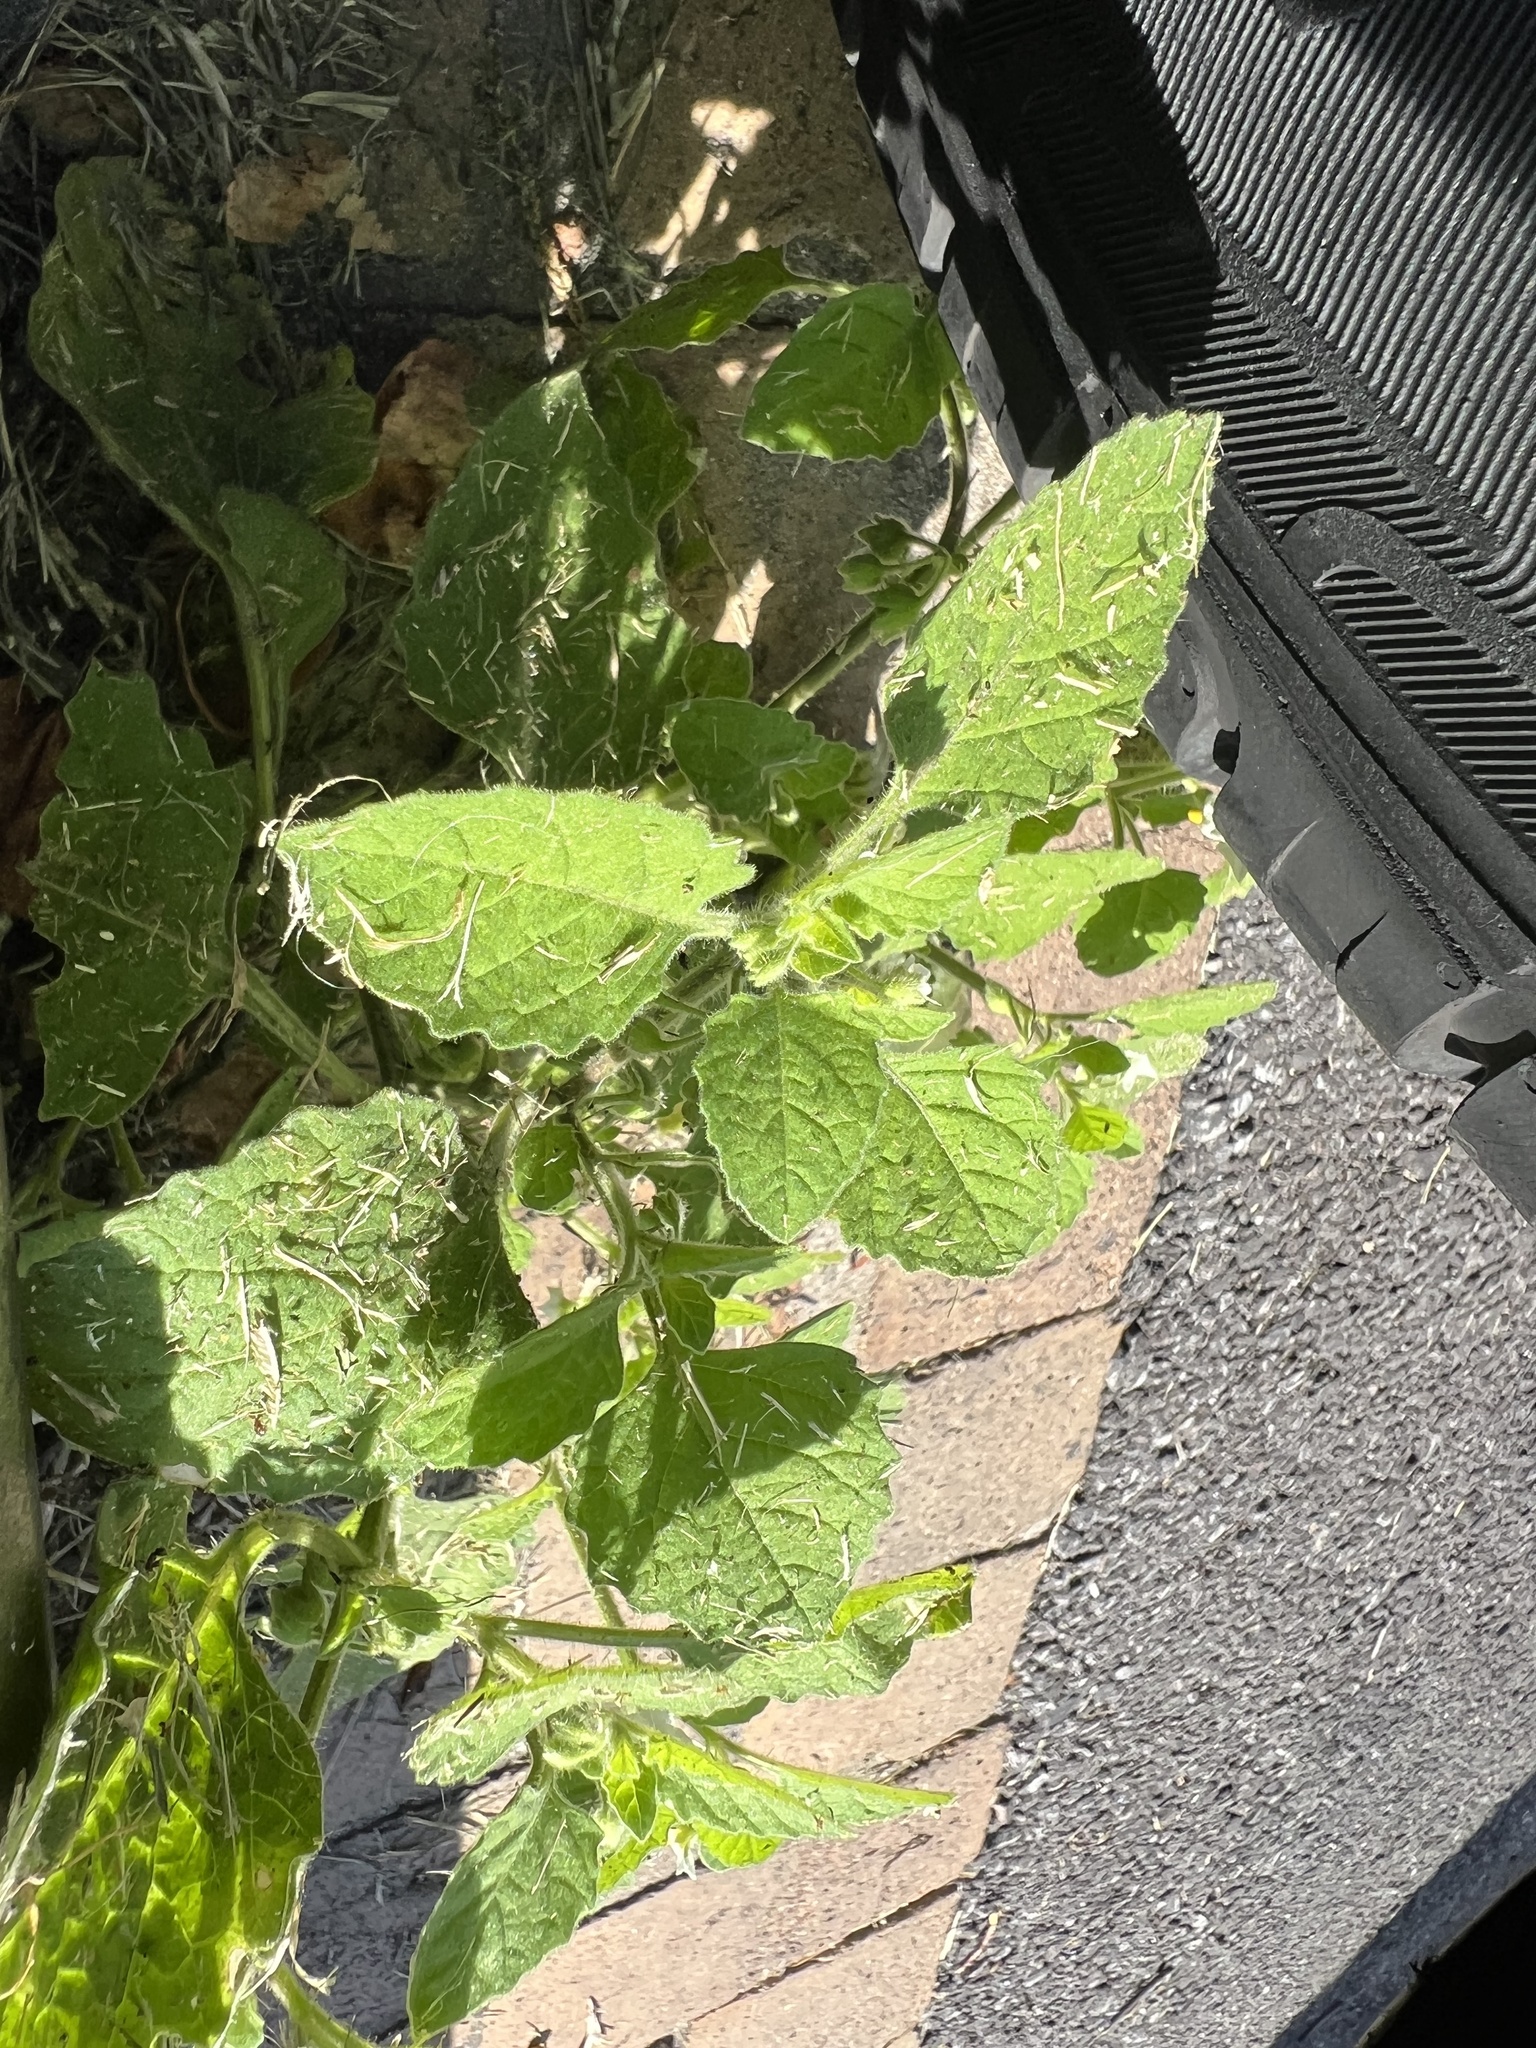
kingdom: Plantae
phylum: Tracheophyta
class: Magnoliopsida
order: Solanales
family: Solanaceae
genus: Solanum
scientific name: Solanum sarrachoides
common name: Leafy-fruited nightshade
